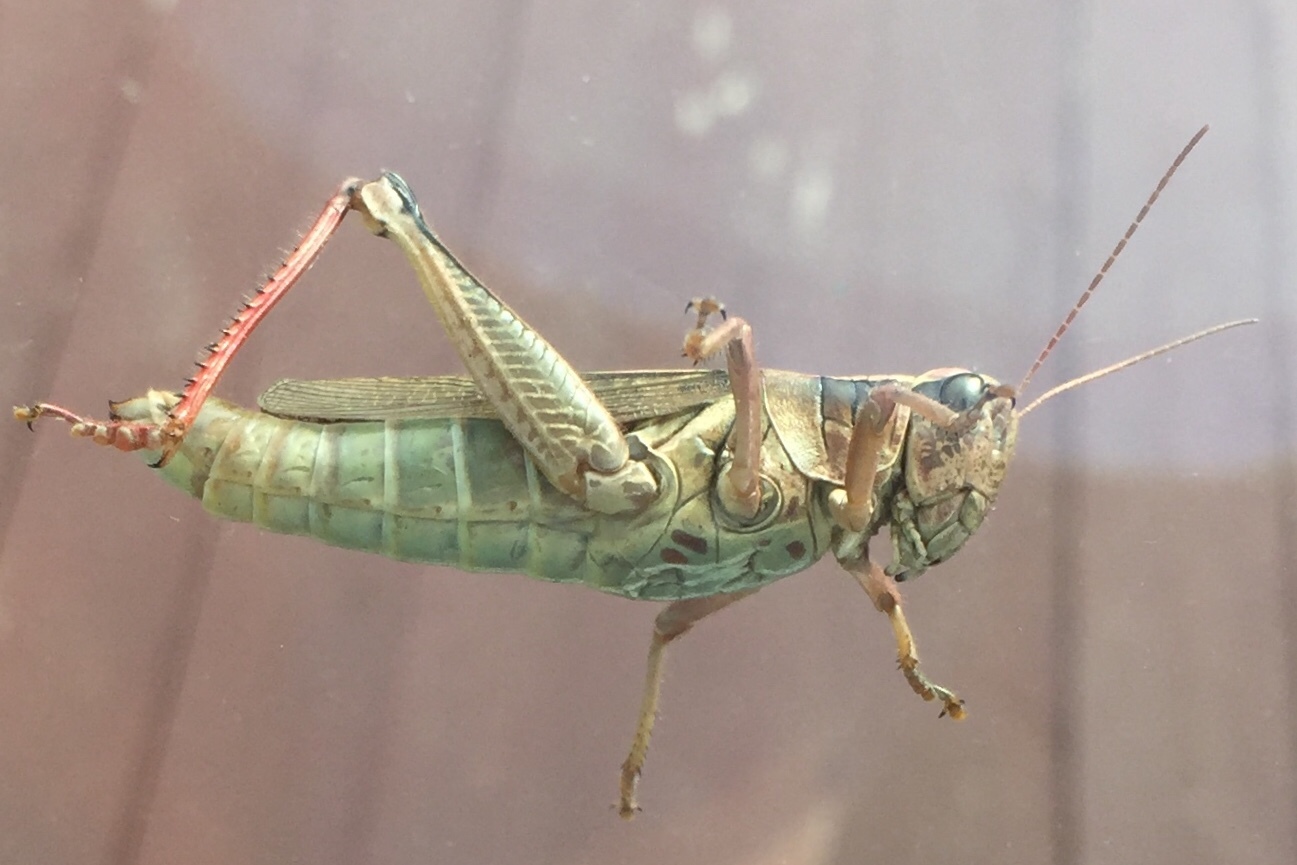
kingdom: Animalia
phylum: Arthropoda
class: Insecta
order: Orthoptera
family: Acrididae
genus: Melanoplus
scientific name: Melanoplus bivittatus
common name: Two-striped grasshopper
